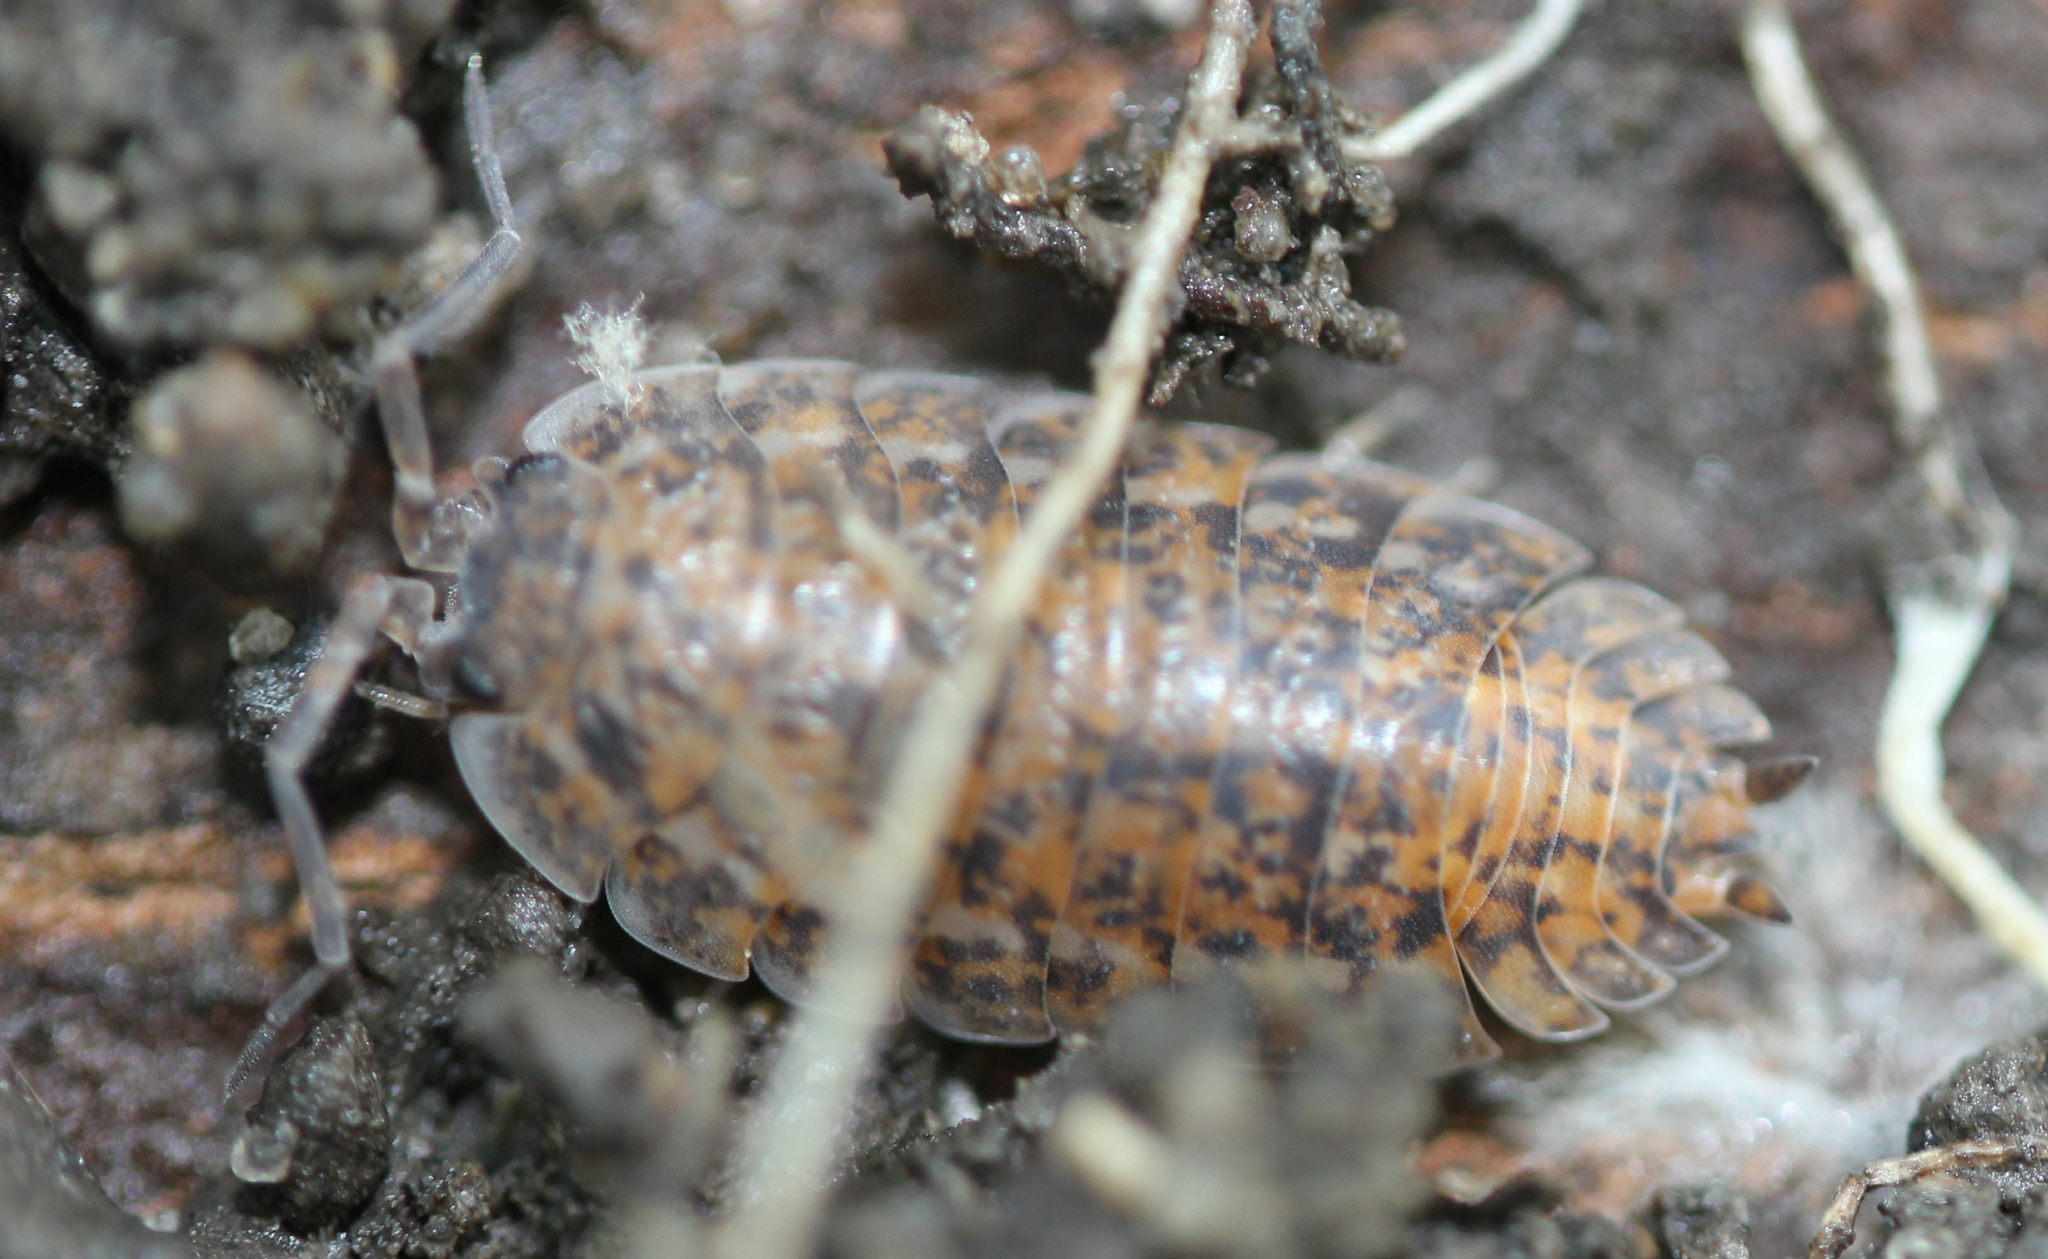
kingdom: Animalia
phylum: Arthropoda
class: Malacostraca
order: Isopoda
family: Trachelipodidae
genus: Trachelipus
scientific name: Trachelipus rathkii
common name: Isopod
